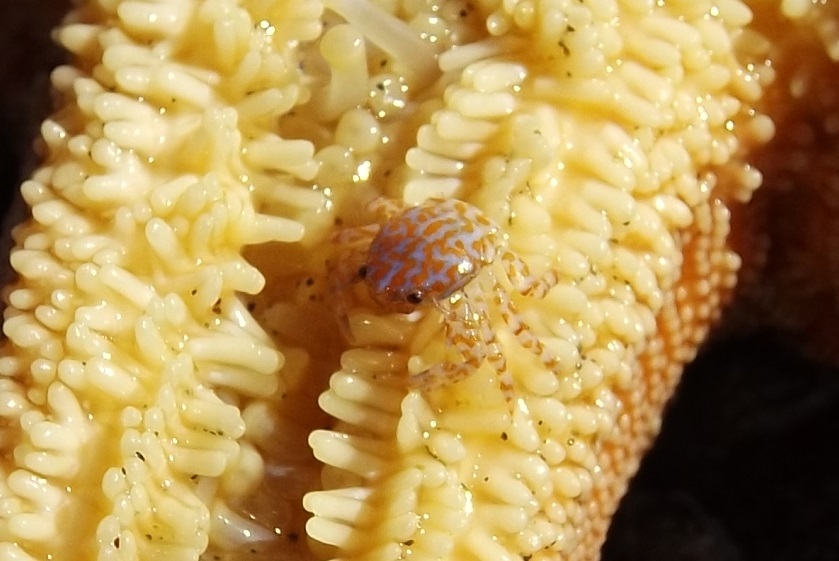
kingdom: Animalia
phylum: Arthropoda
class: Malacostraca
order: Decapoda
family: Porcellanidae
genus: Petrolisthes
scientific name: Petrolisthes spinifrons
